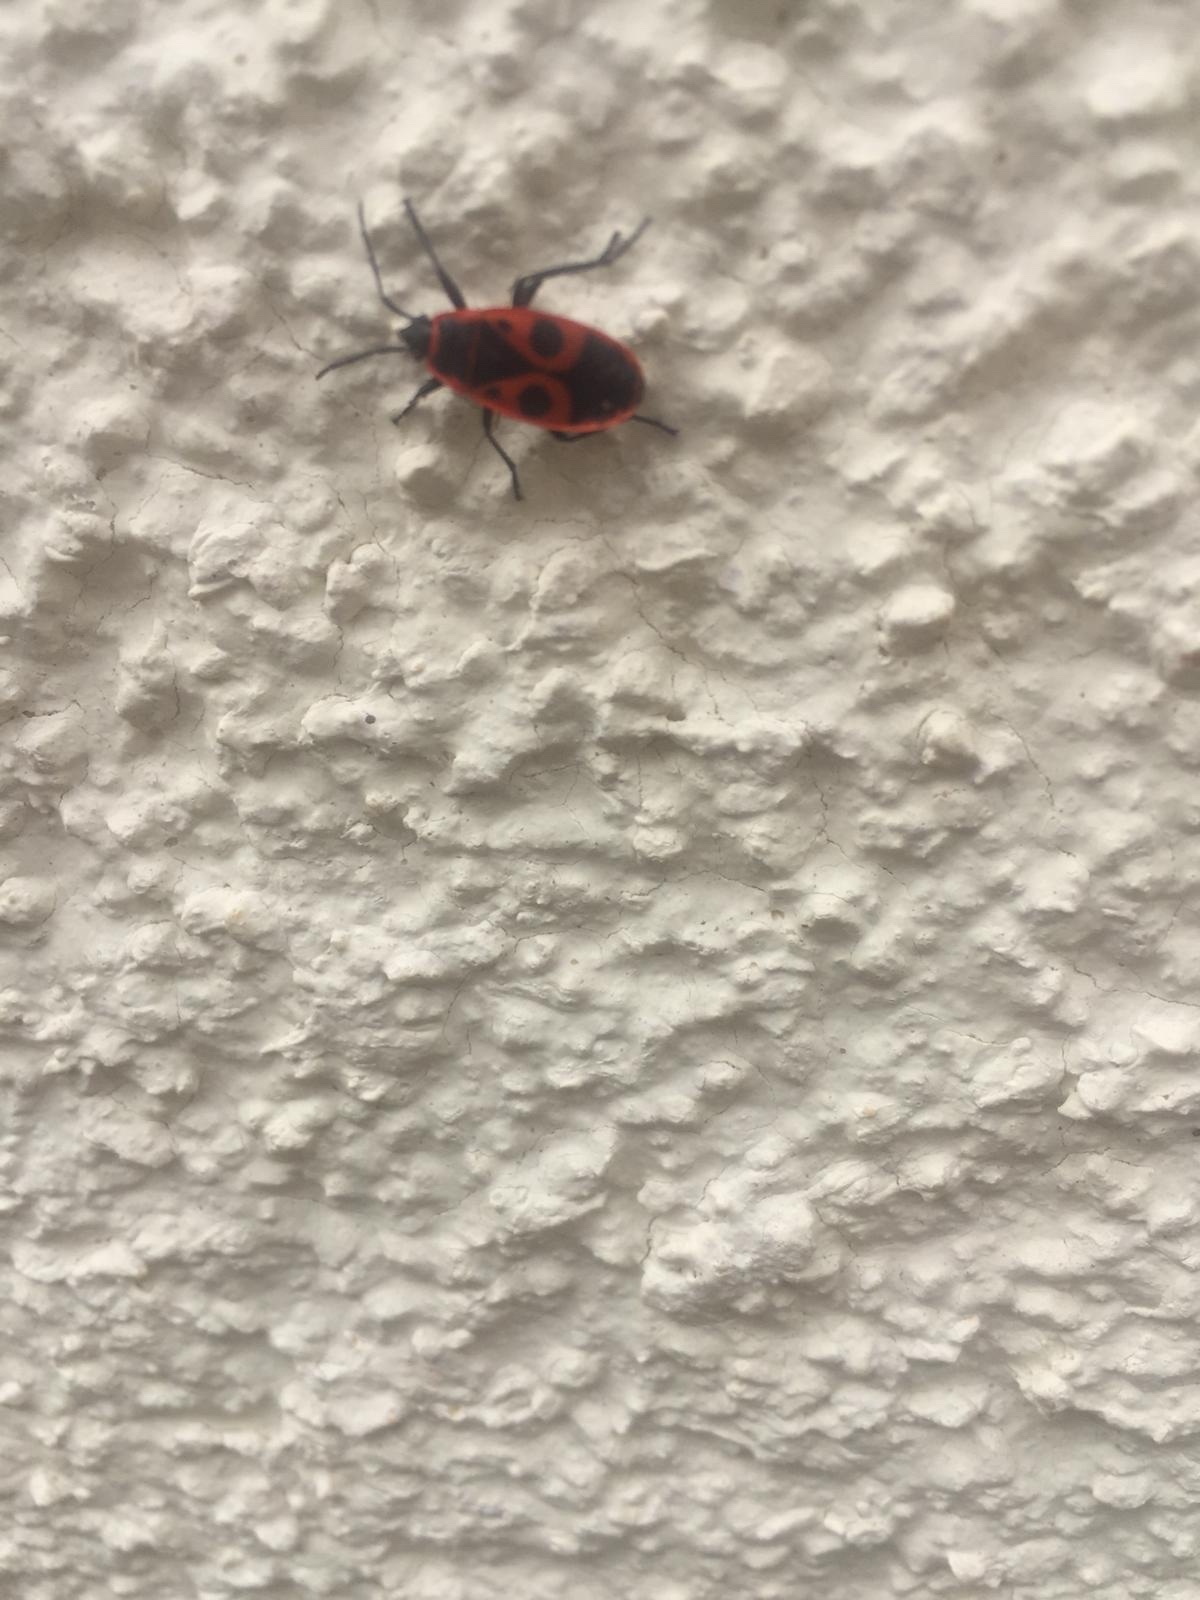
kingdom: Animalia
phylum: Arthropoda
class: Insecta
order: Hemiptera
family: Pyrrhocoridae
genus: Pyrrhocoris
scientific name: Pyrrhocoris apterus
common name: Firebug
